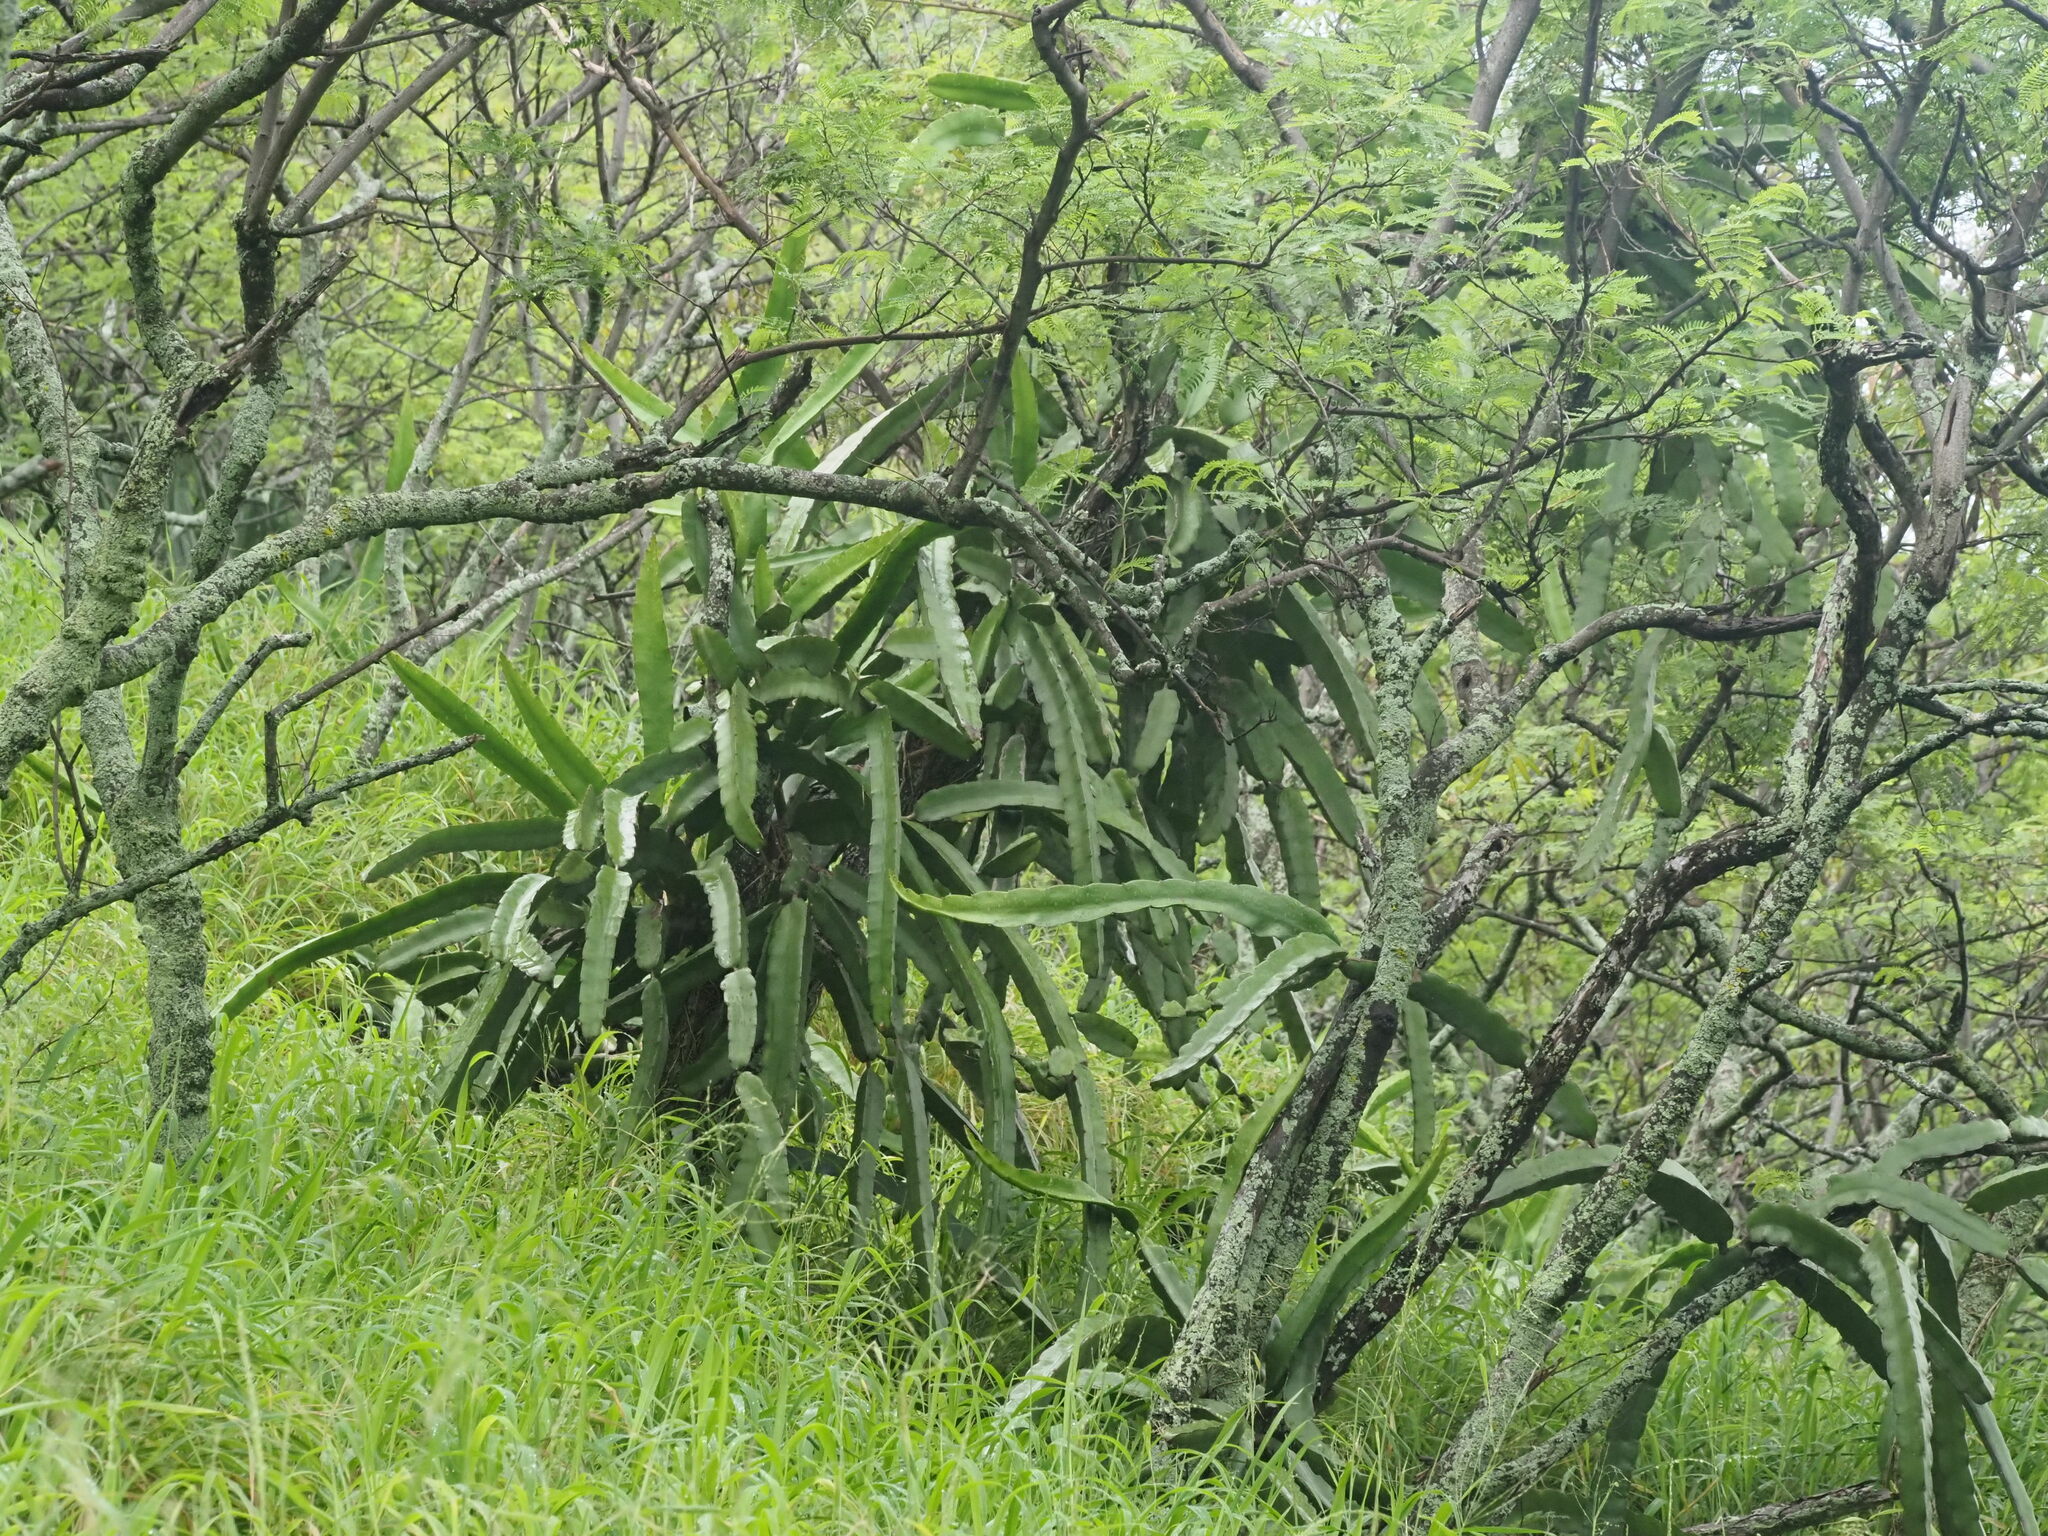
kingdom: Plantae
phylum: Tracheophyta
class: Magnoliopsida
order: Caryophyllales
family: Cactaceae
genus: Selenicereus
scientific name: Selenicereus undatus
